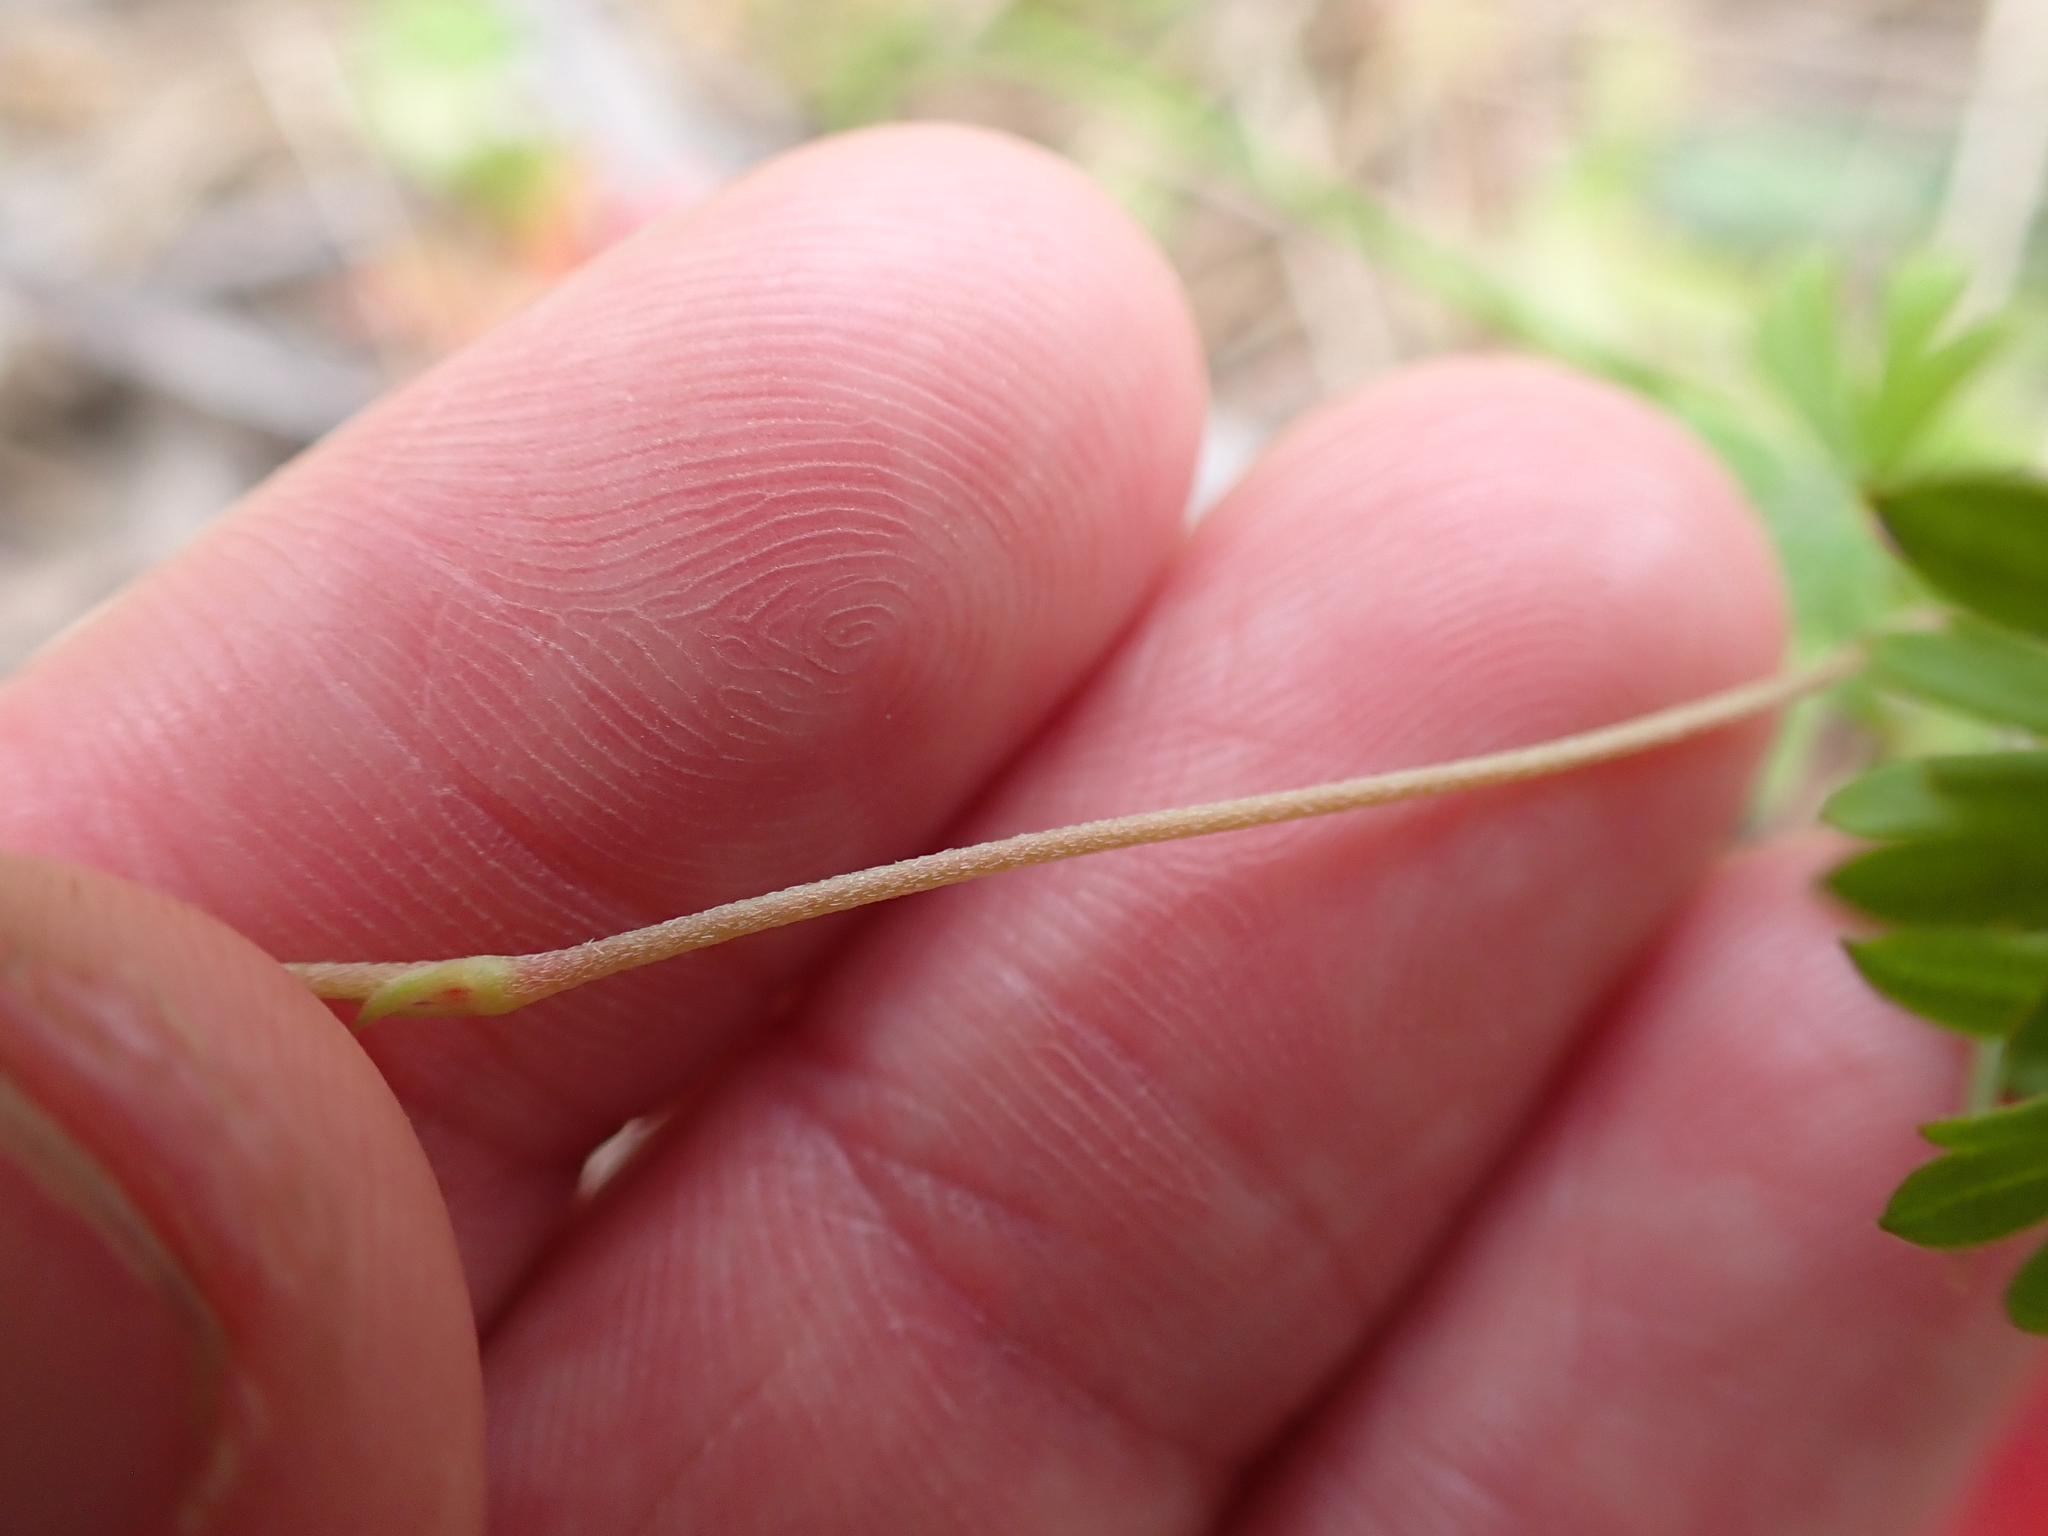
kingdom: Plantae
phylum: Tracheophyta
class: Magnoliopsida
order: Geraniales
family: Geraniaceae
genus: Geranium
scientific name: Geranium neglectum
